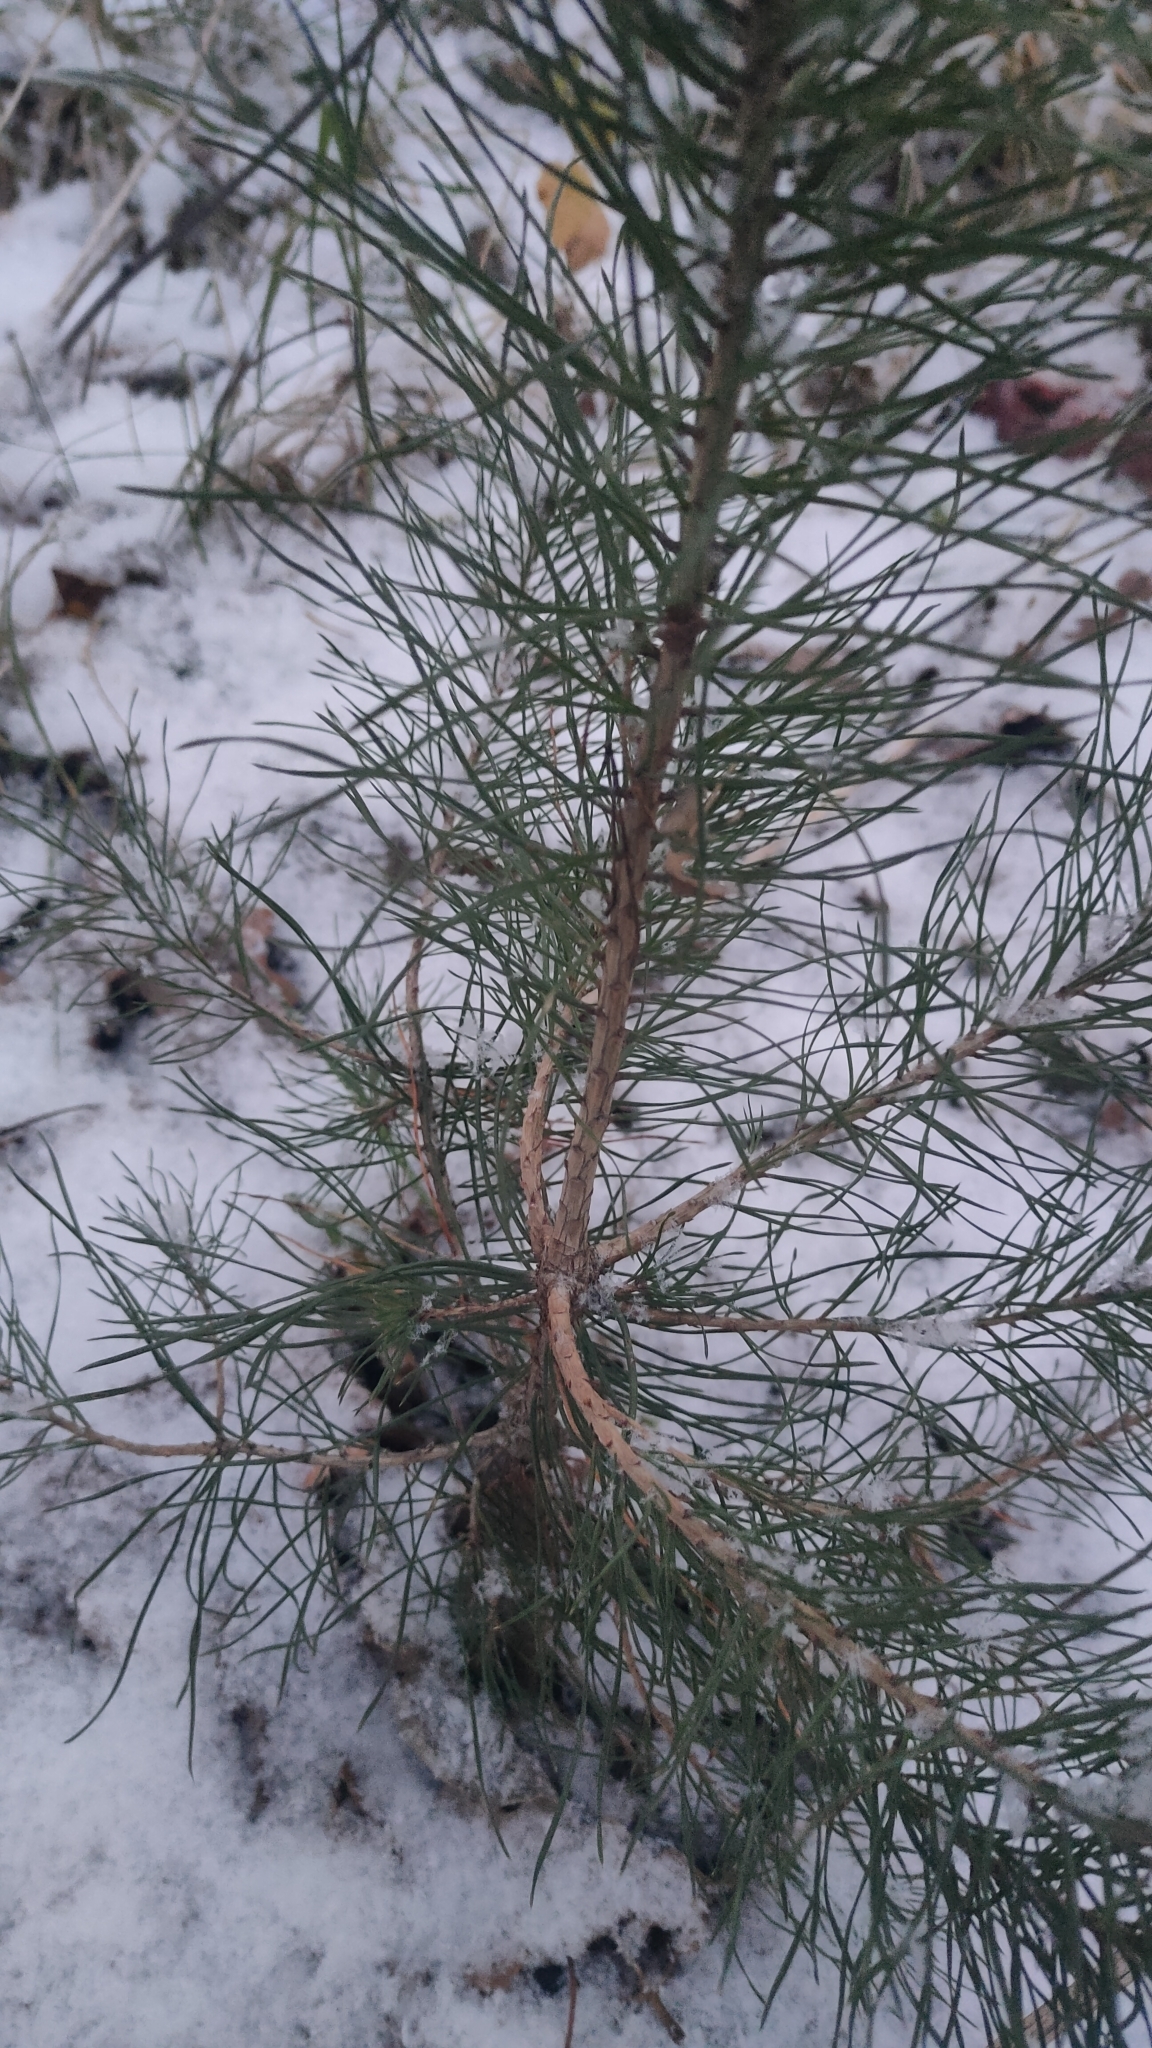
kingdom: Plantae
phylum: Tracheophyta
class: Pinopsida
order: Pinales
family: Pinaceae
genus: Pinus
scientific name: Pinus sylvestris
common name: Scots pine
